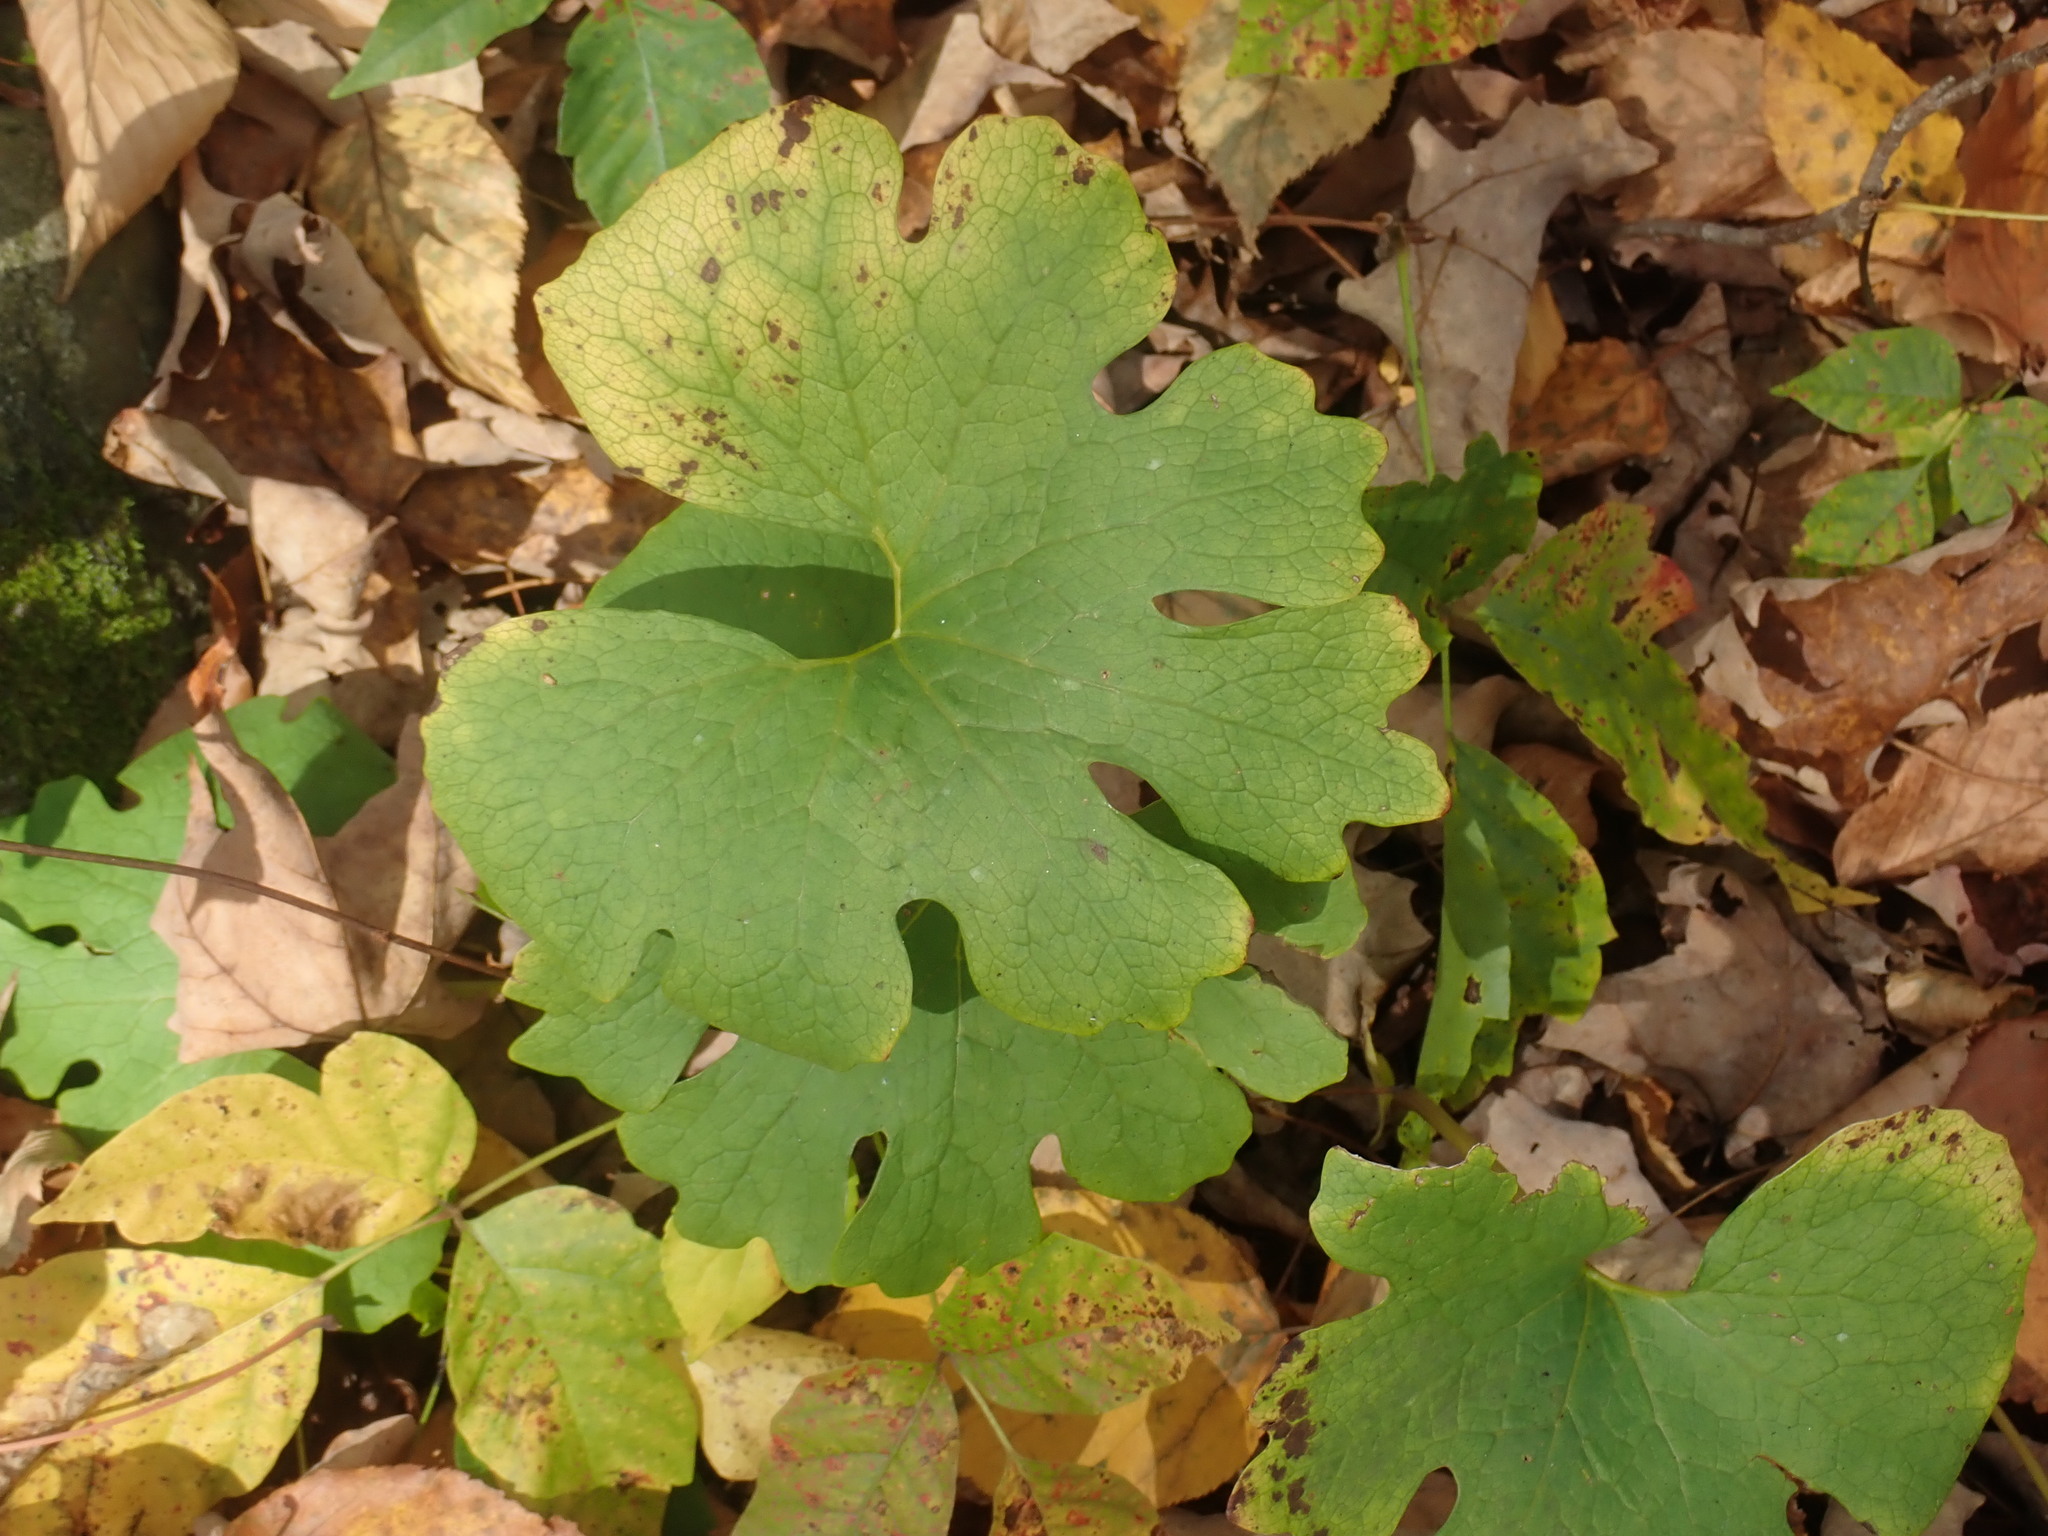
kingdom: Plantae
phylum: Tracheophyta
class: Magnoliopsida
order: Ranunculales
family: Papaveraceae
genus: Sanguinaria
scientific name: Sanguinaria canadensis
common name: Bloodroot
